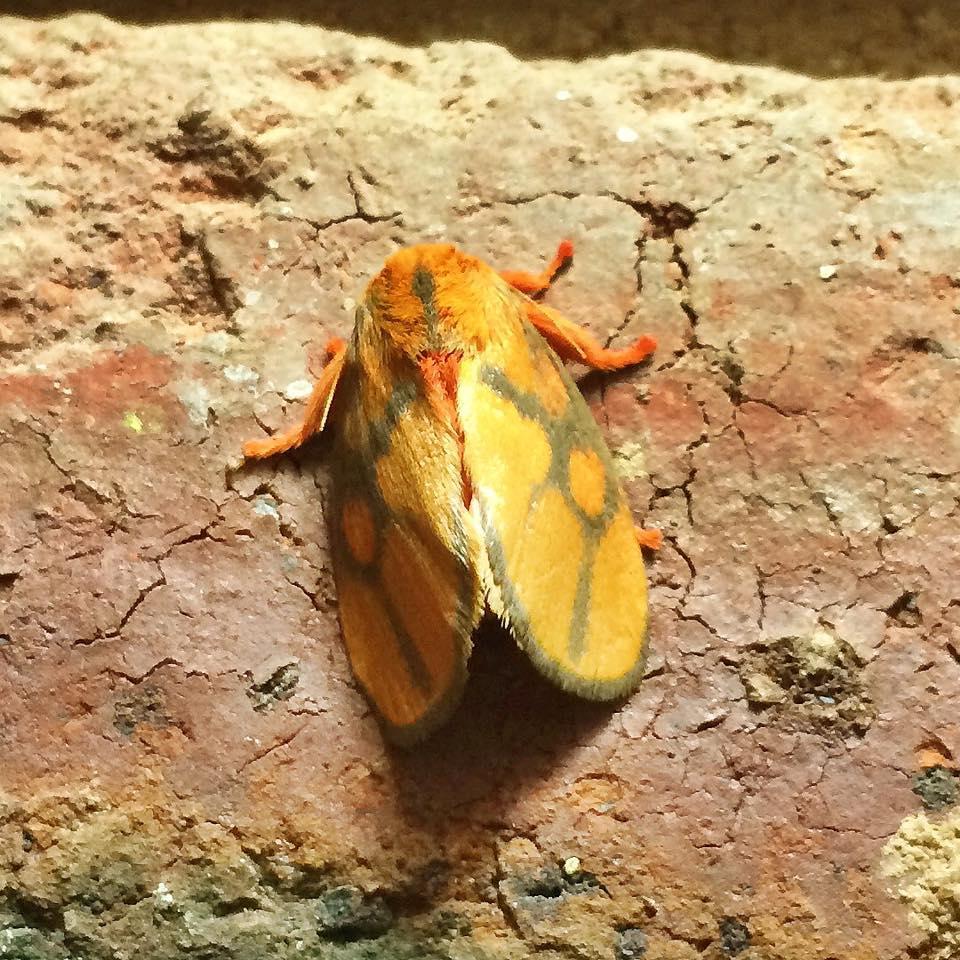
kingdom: Animalia
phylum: Arthropoda
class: Insecta
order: Lepidoptera
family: Limacodidae
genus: Micraphe
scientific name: Micraphe lateritia
